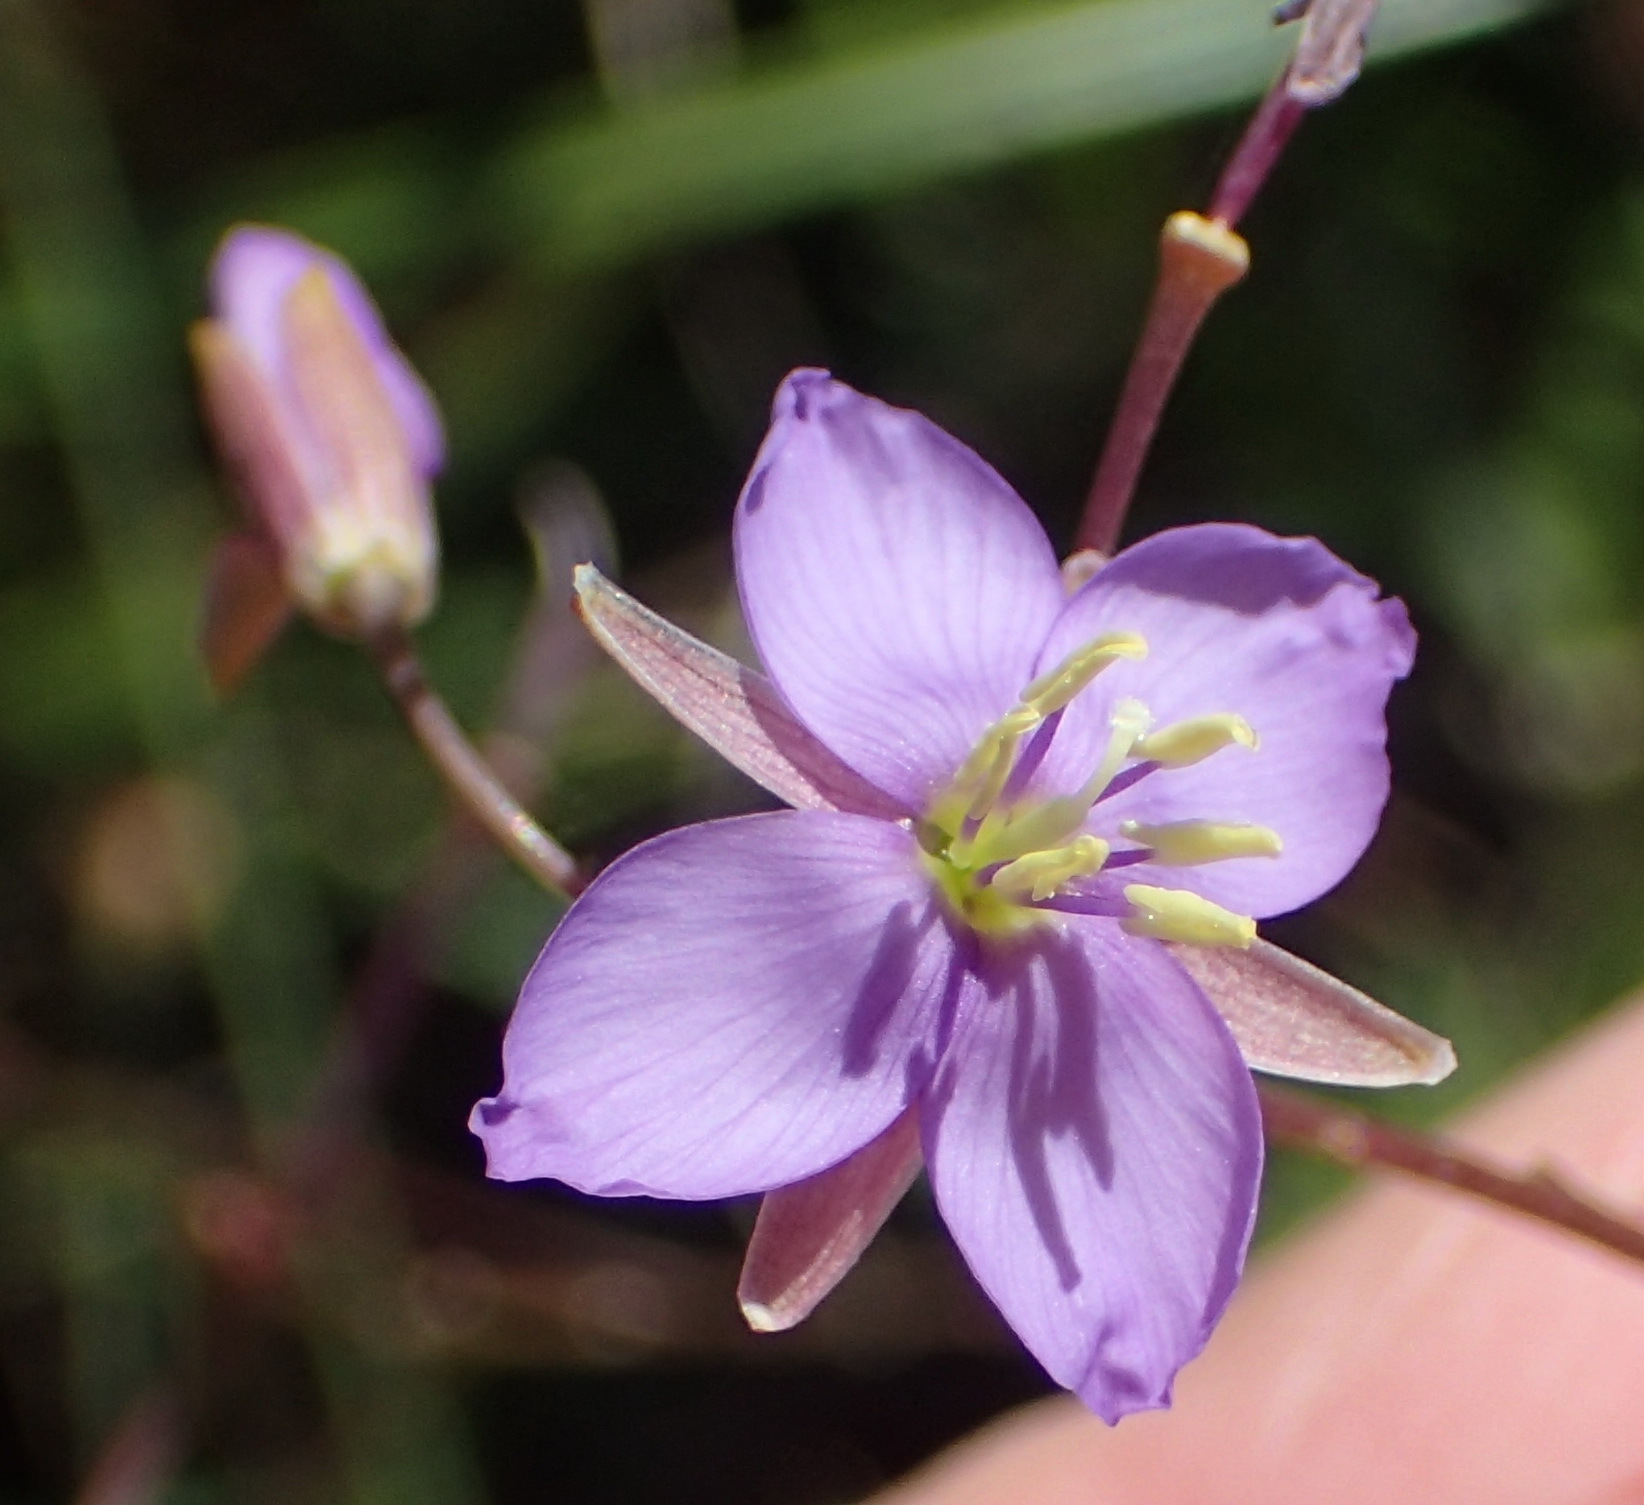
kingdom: Plantae
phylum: Tracheophyta
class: Magnoliopsida
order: Brassicales
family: Brassicaceae
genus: Heliophila
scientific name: Heliophila subulata
